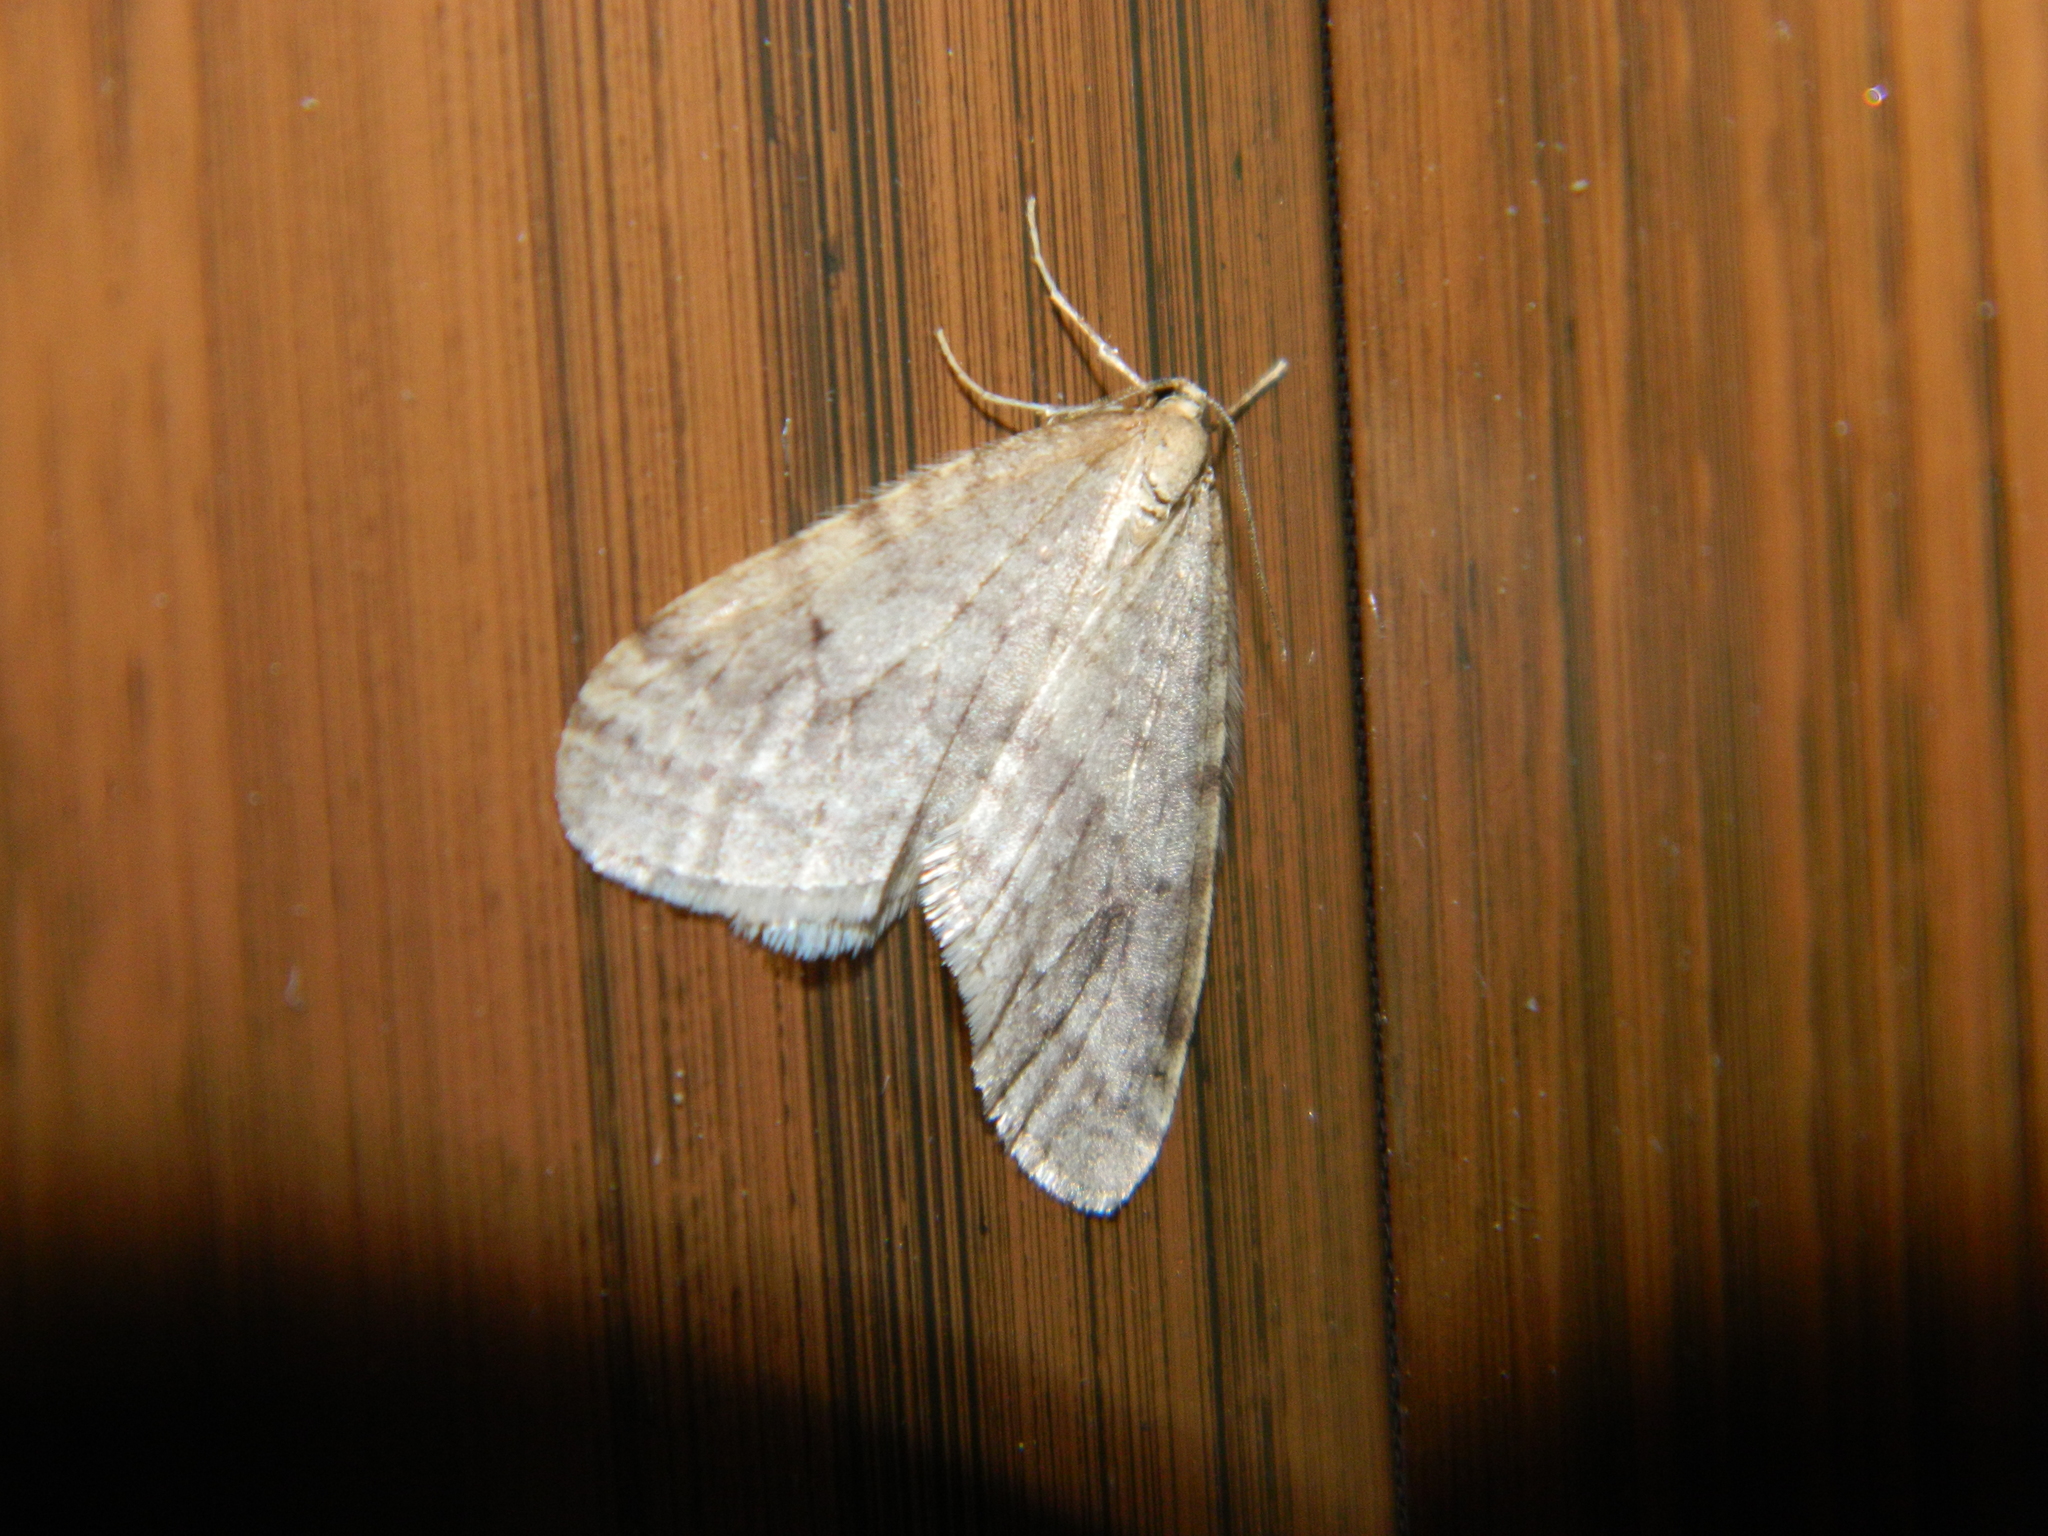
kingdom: Animalia
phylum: Arthropoda
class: Insecta
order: Lepidoptera
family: Geometridae
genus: Epirrita
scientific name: Epirrita autumnata
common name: Autumnal moth
